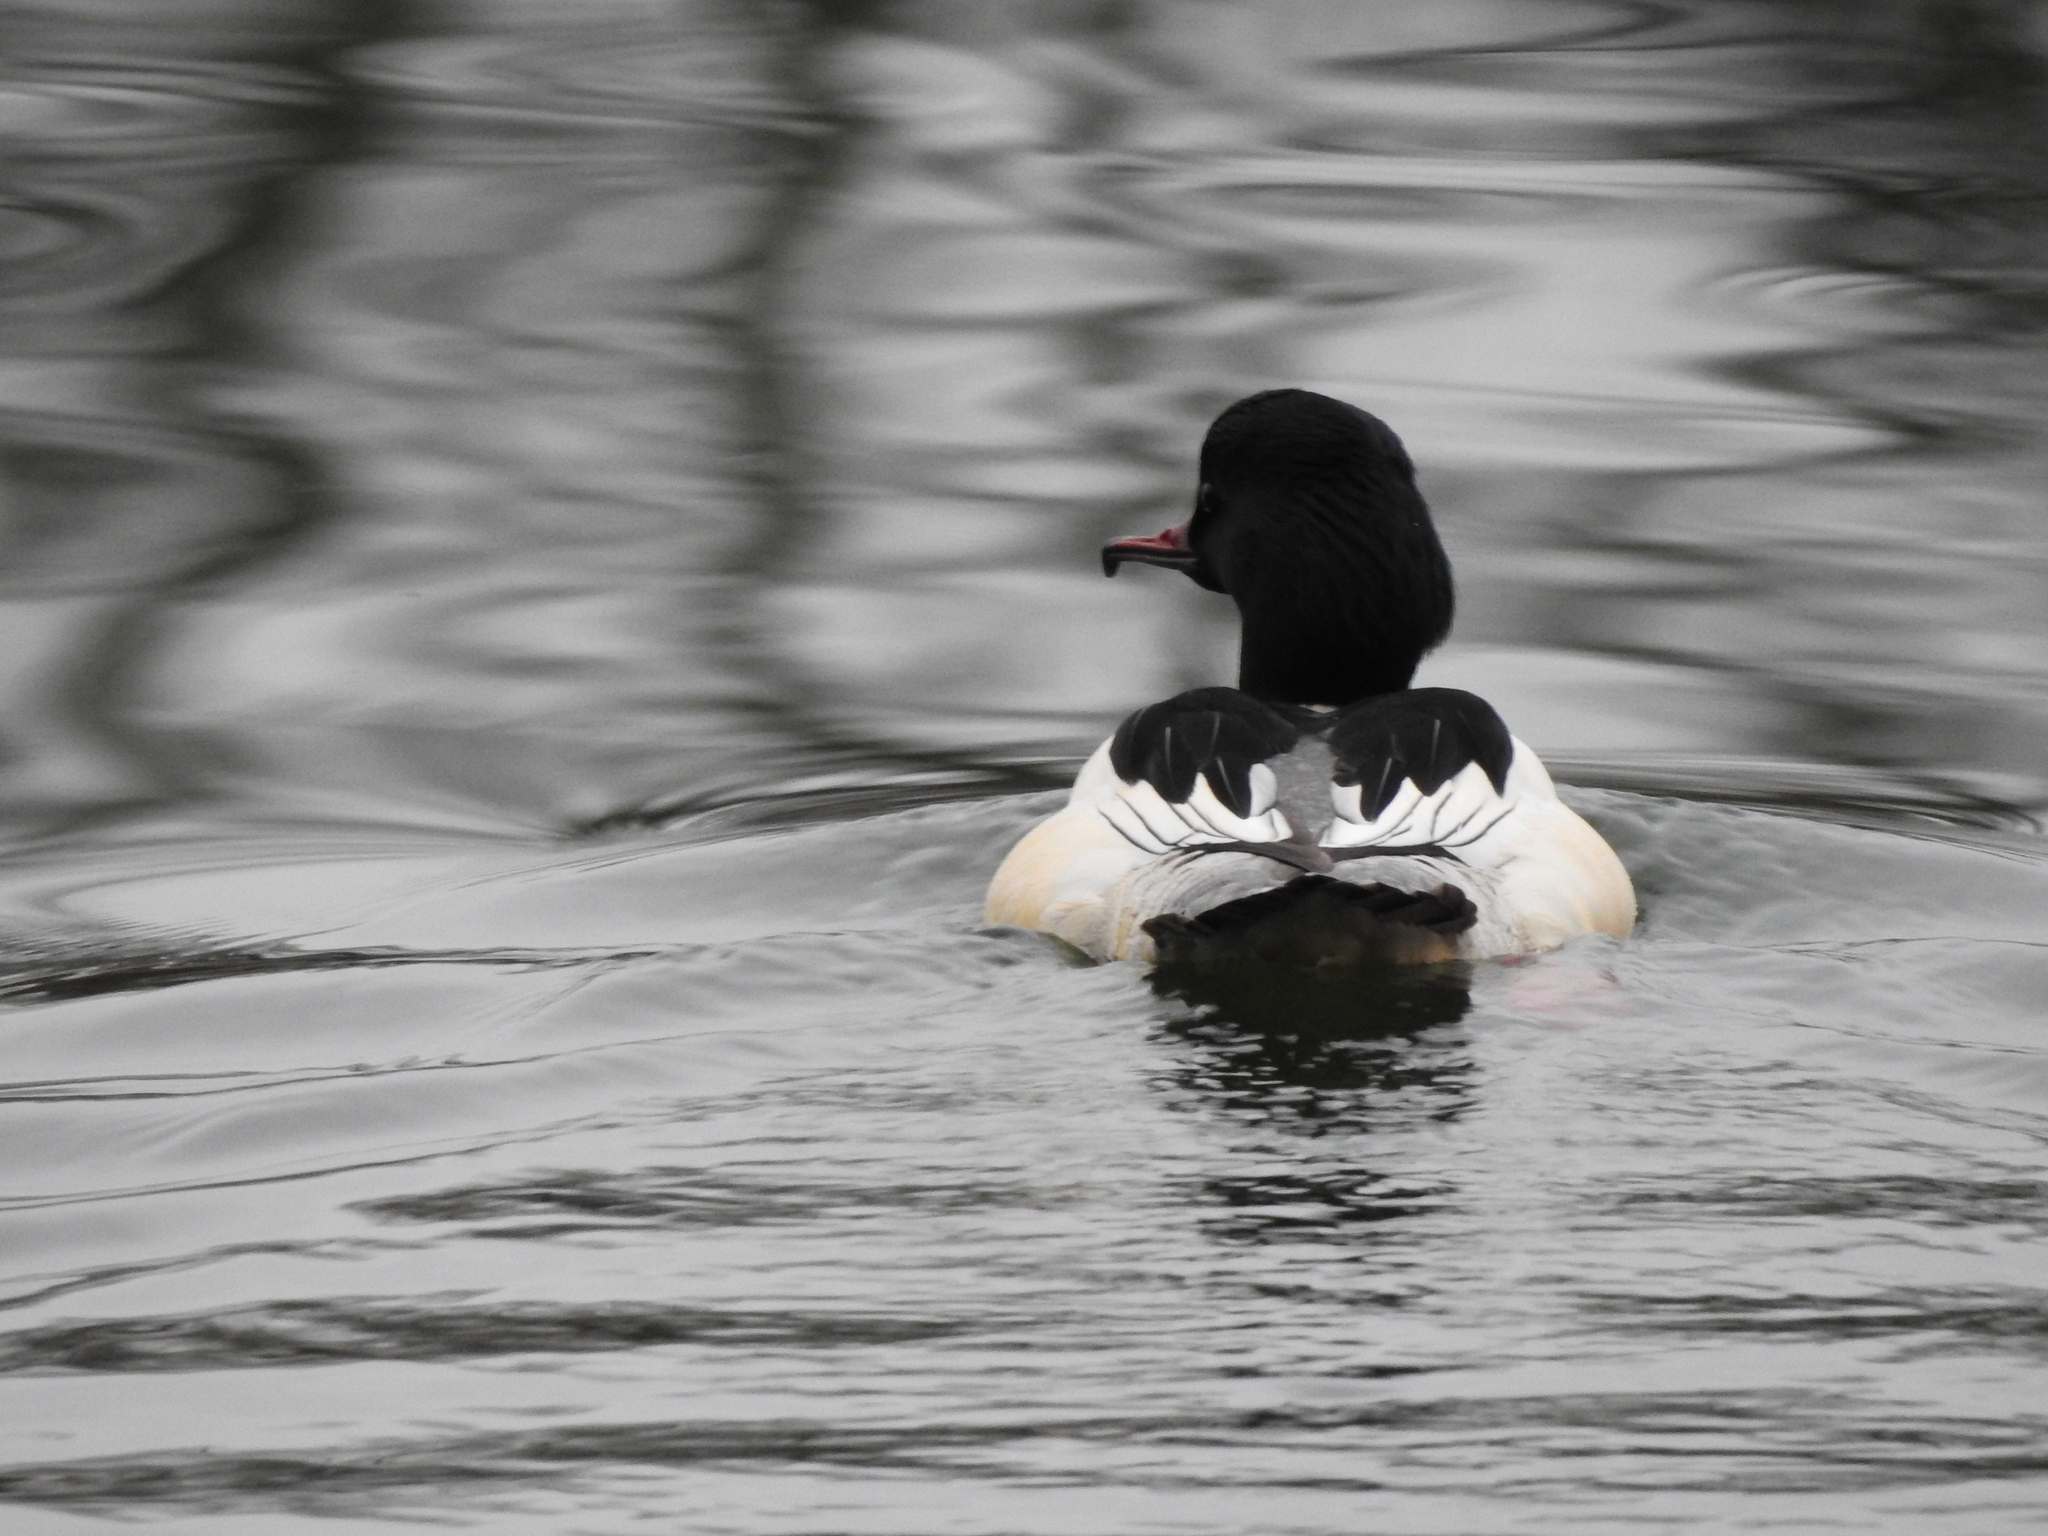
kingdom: Animalia
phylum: Chordata
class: Aves
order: Anseriformes
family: Anatidae
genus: Mergus
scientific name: Mergus merganser
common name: Common merganser
